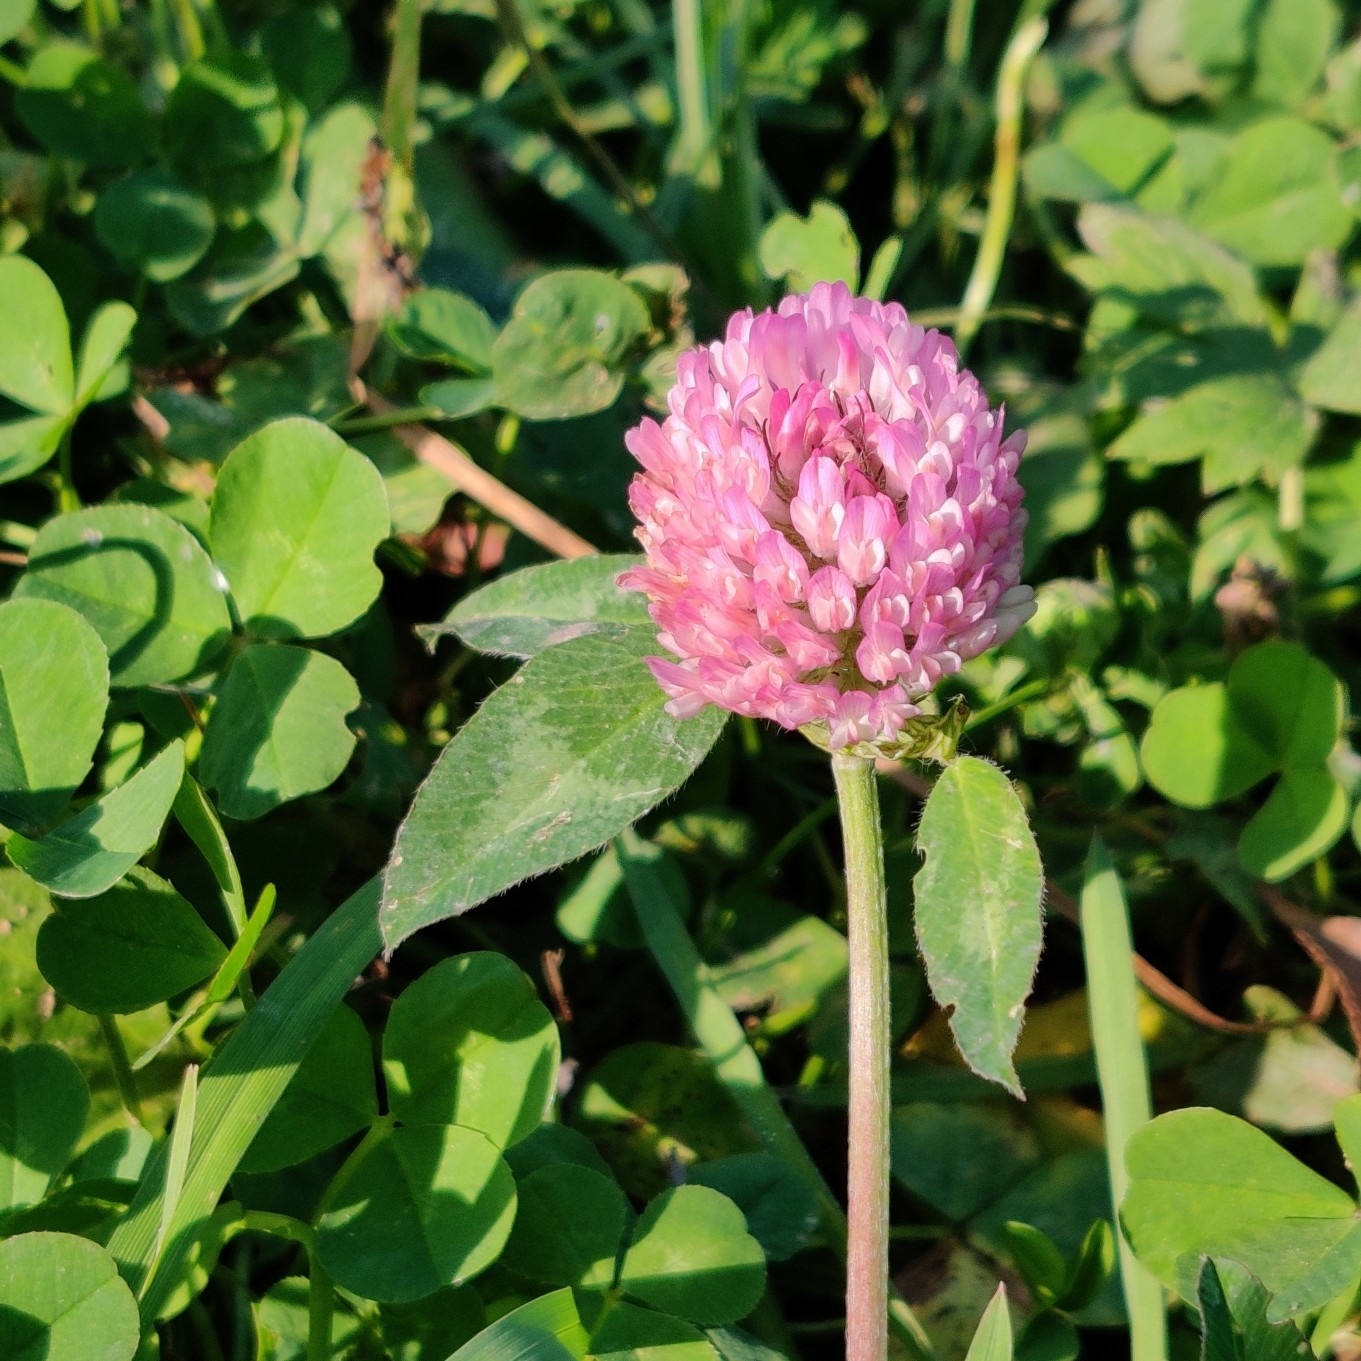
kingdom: Plantae
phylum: Tracheophyta
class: Magnoliopsida
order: Fabales
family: Fabaceae
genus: Trifolium
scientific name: Trifolium pratense
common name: Red clover
